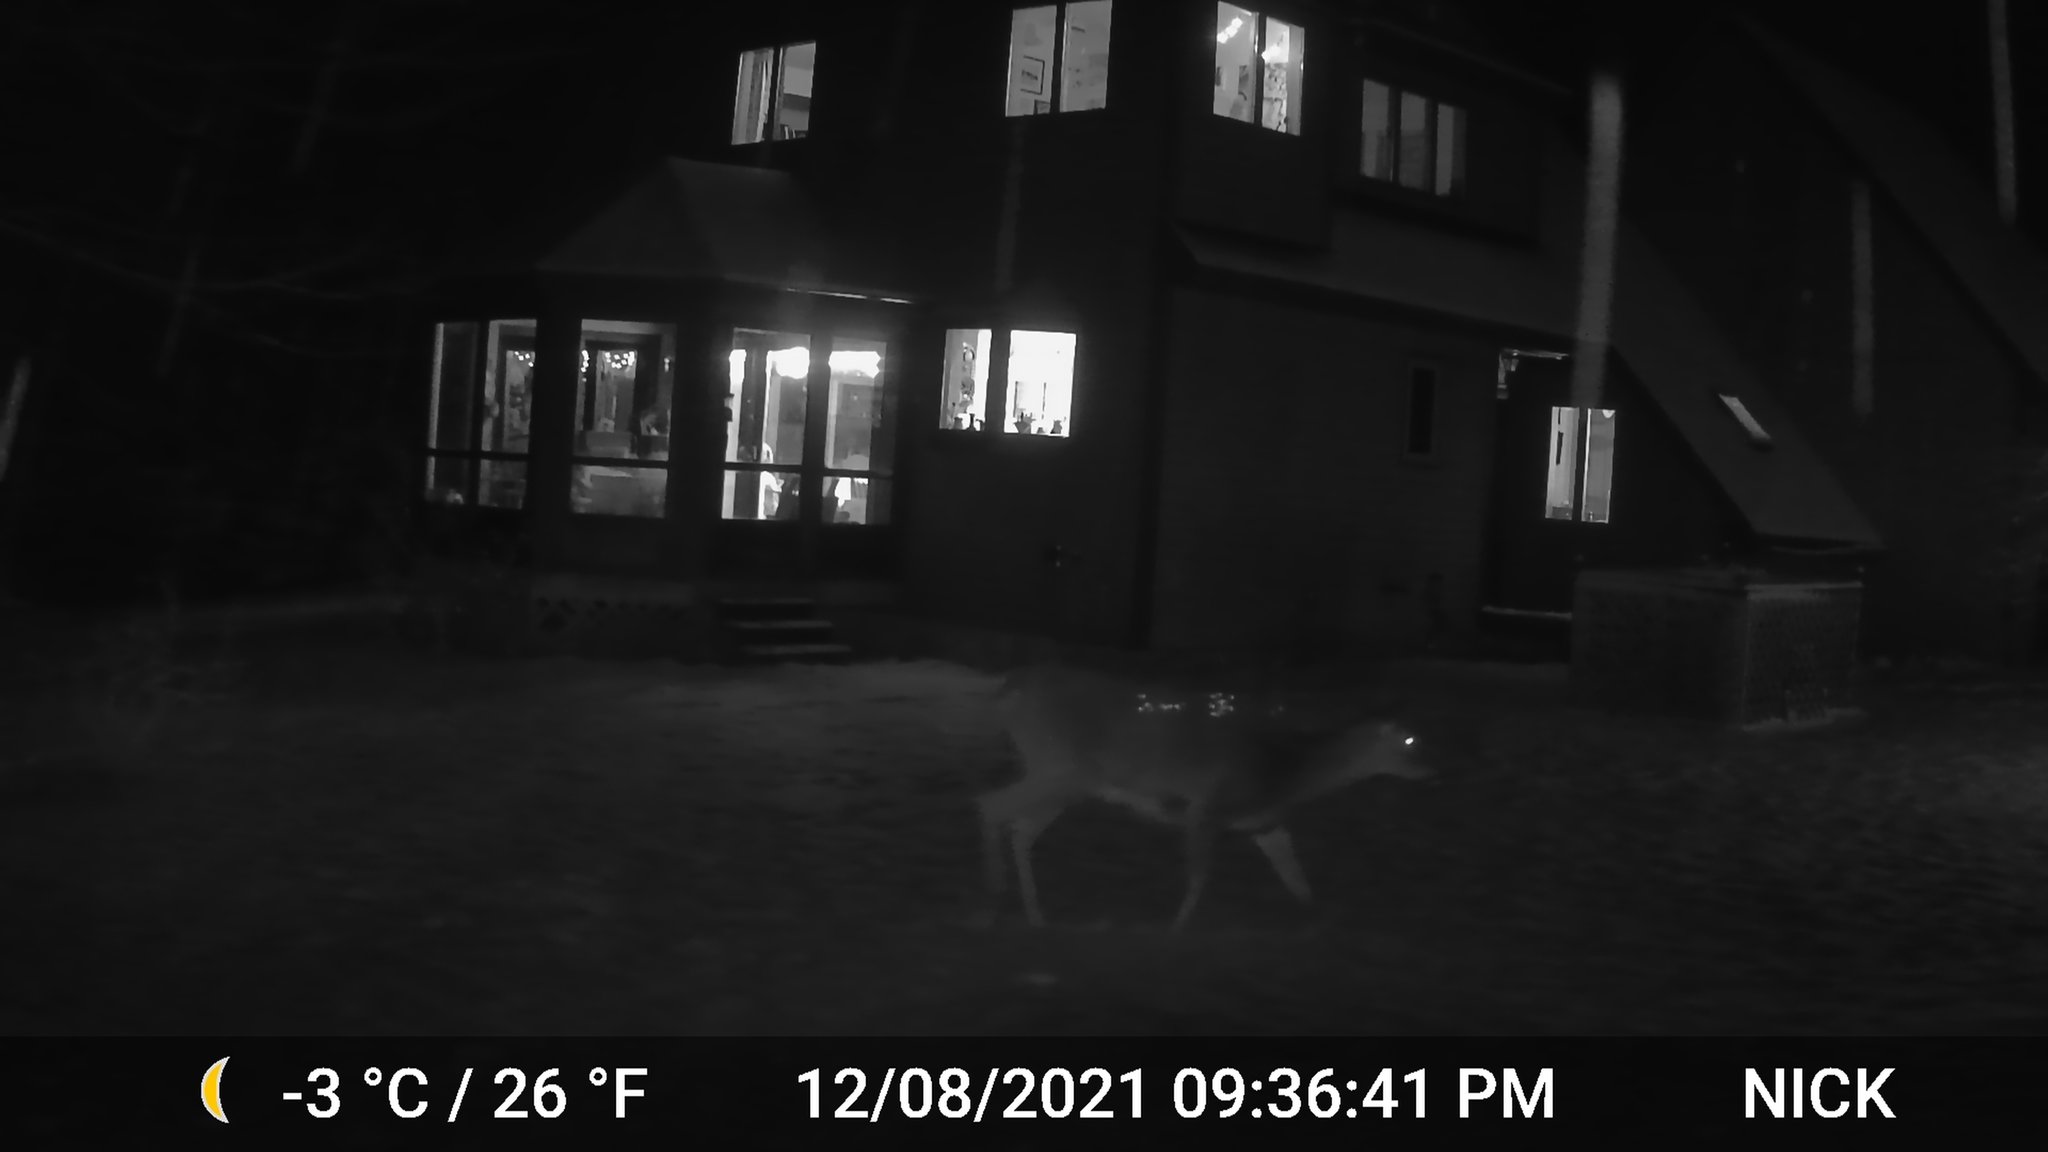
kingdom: Animalia
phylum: Chordata
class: Mammalia
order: Artiodactyla
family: Cervidae
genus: Odocoileus
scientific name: Odocoileus virginianus
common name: White-tailed deer
